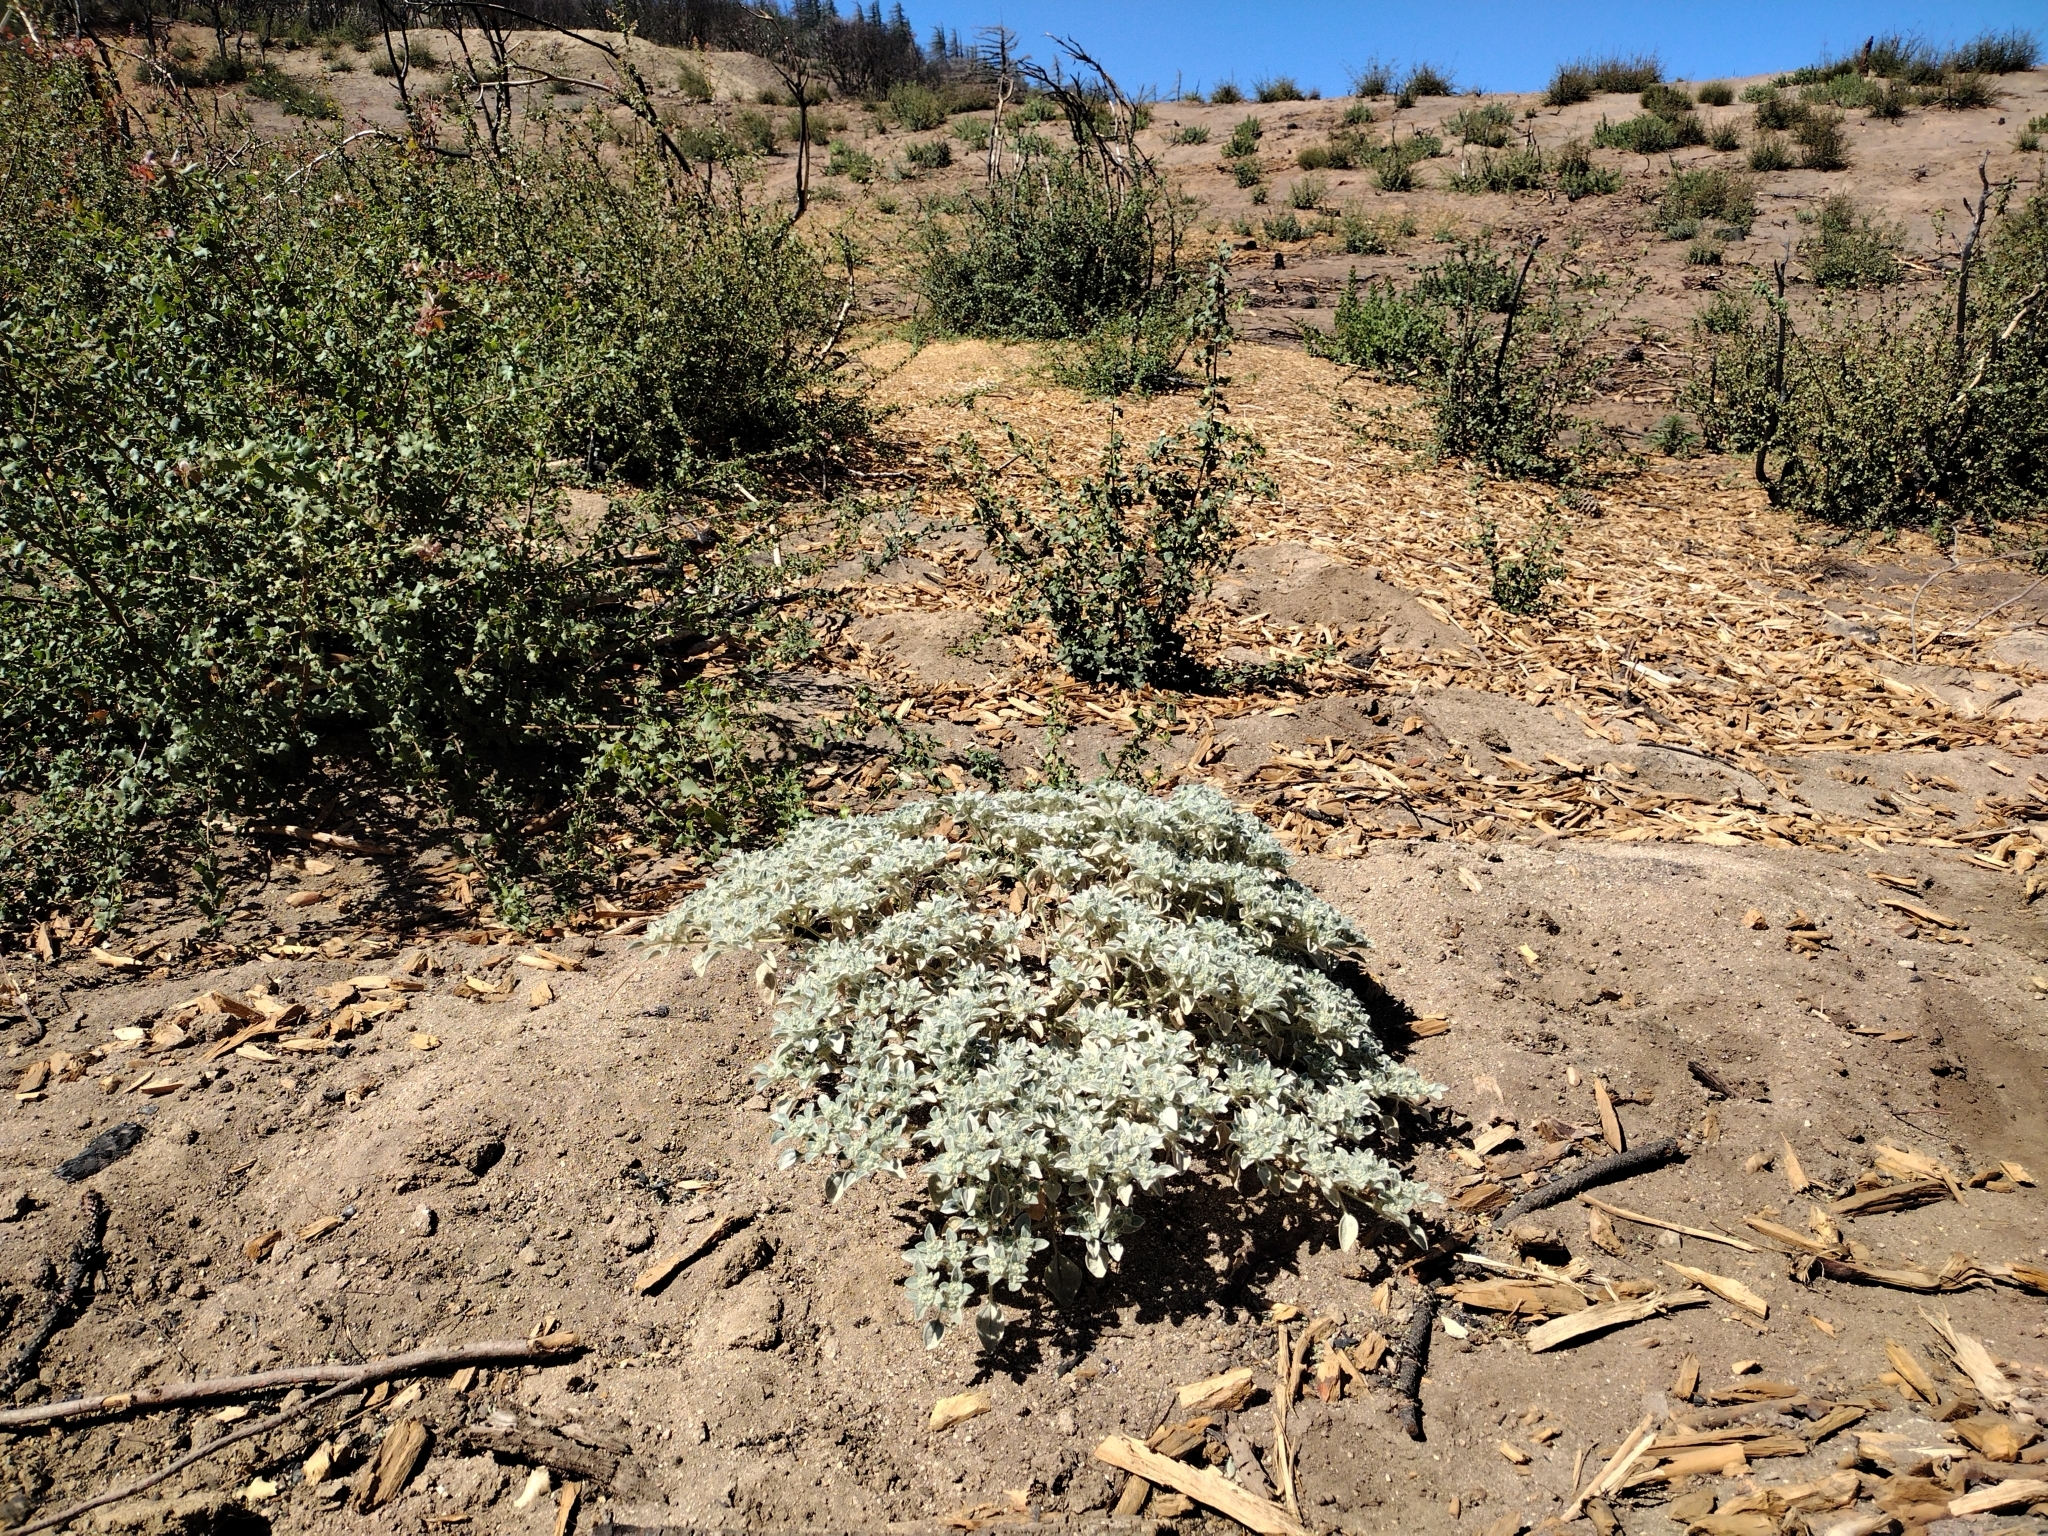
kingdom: Plantae
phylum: Tracheophyta
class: Magnoliopsida
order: Malpighiales
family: Euphorbiaceae
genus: Croton
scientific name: Croton setiger
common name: Dove weed
